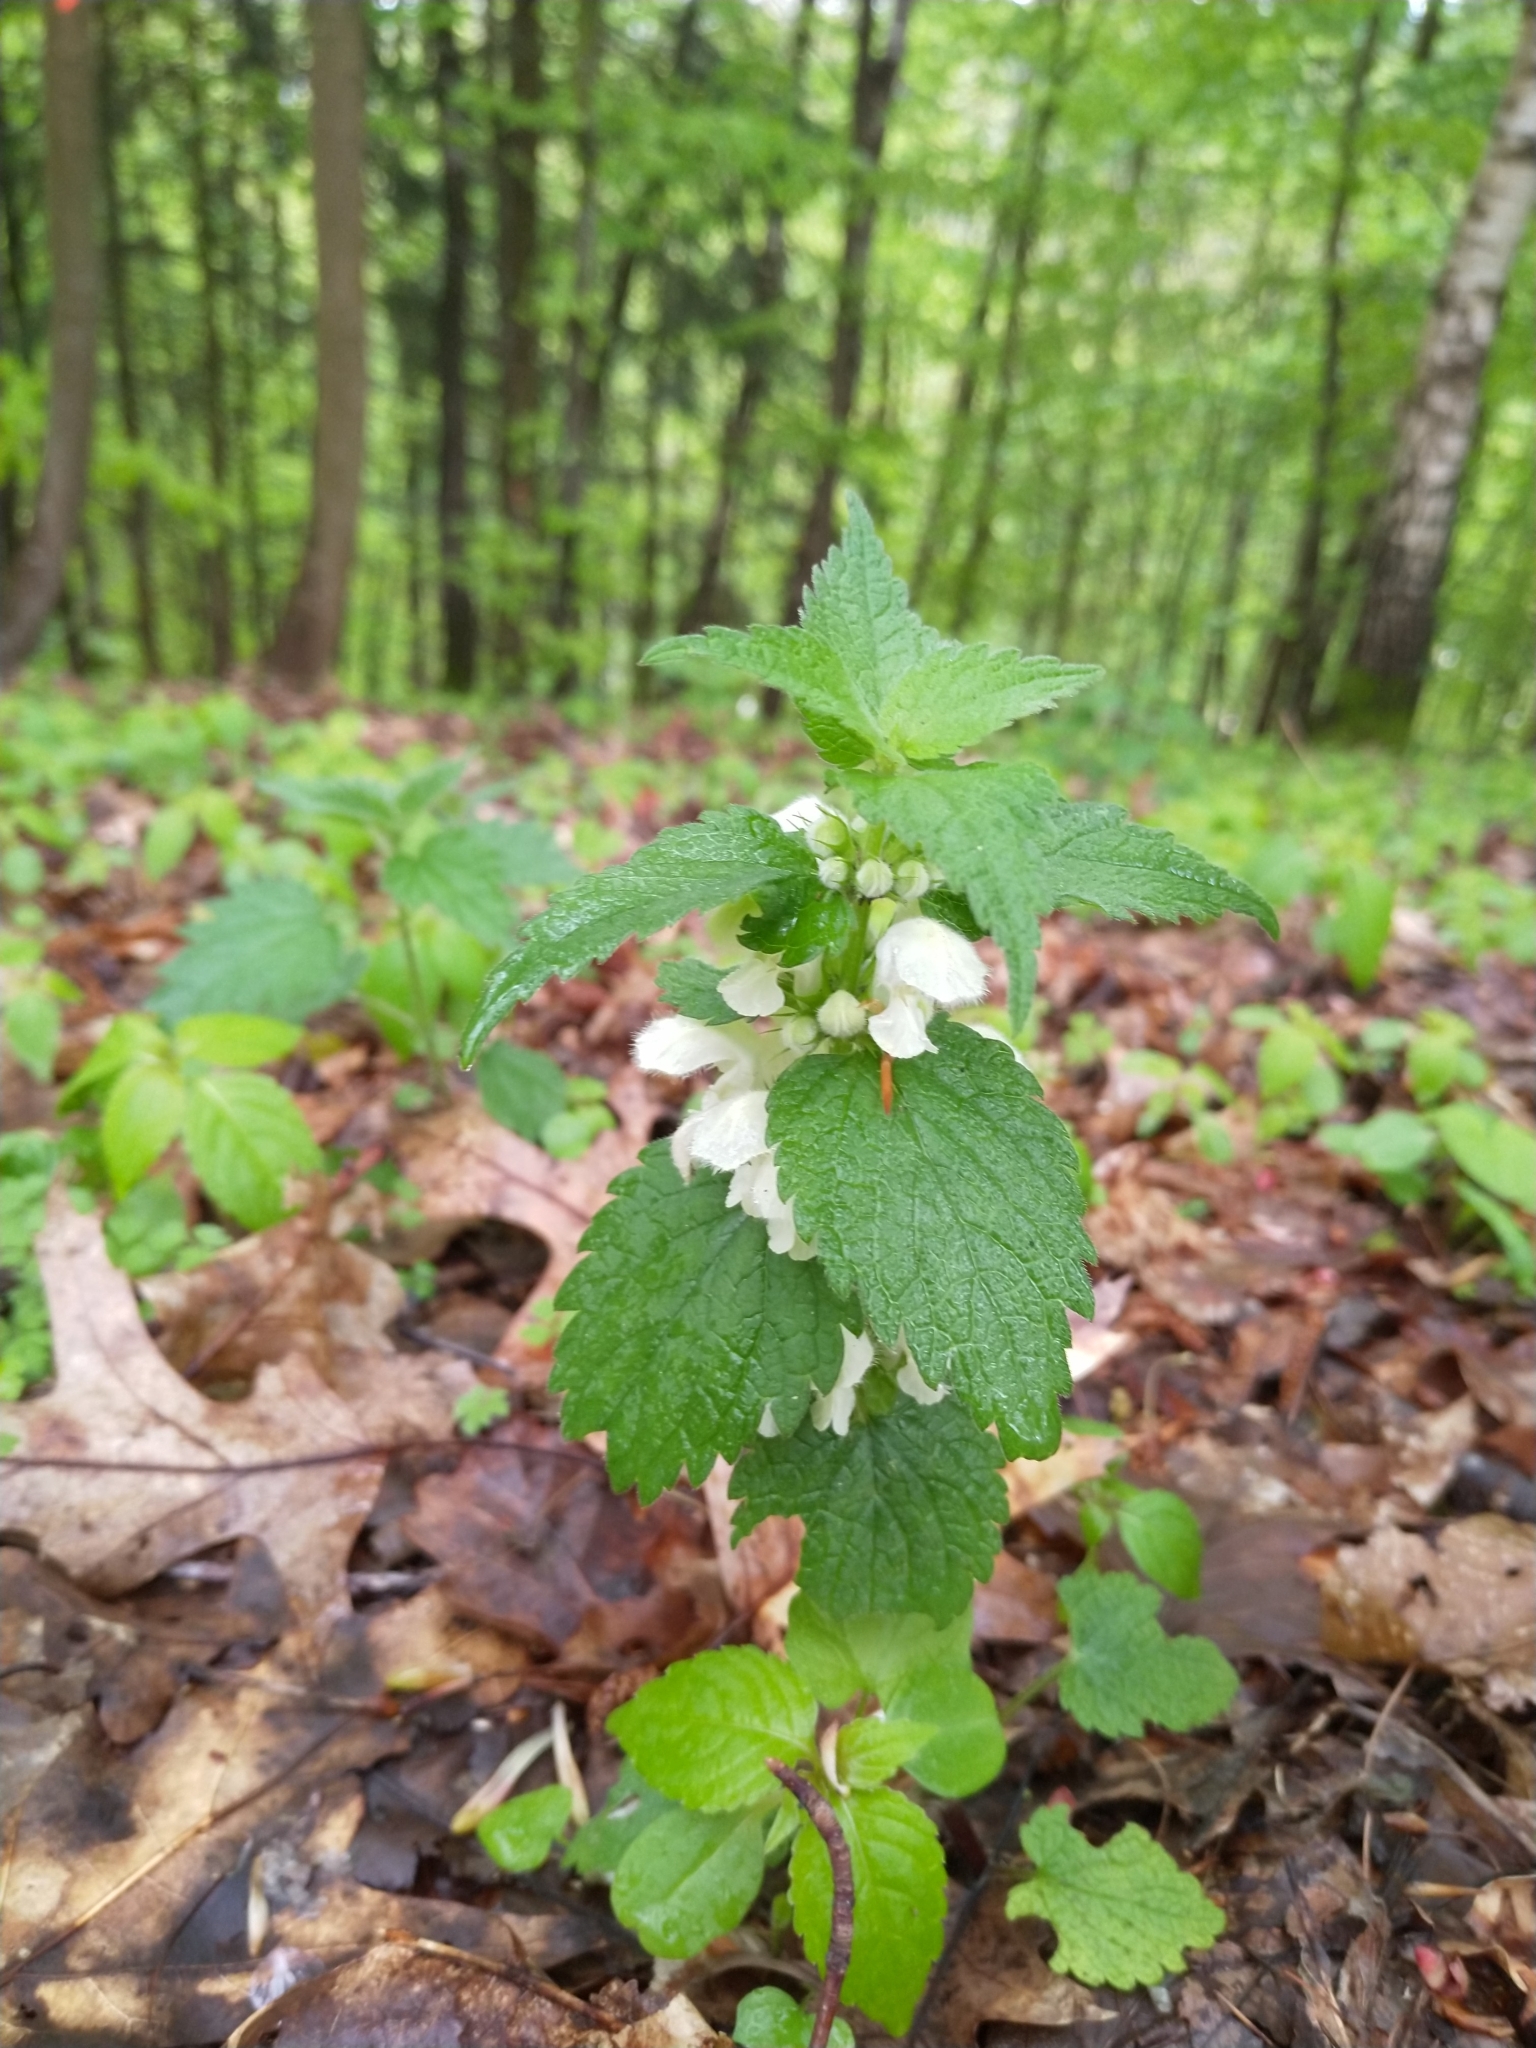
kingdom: Plantae
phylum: Tracheophyta
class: Magnoliopsida
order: Lamiales
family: Lamiaceae
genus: Lamium
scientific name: Lamium album
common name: White dead-nettle
